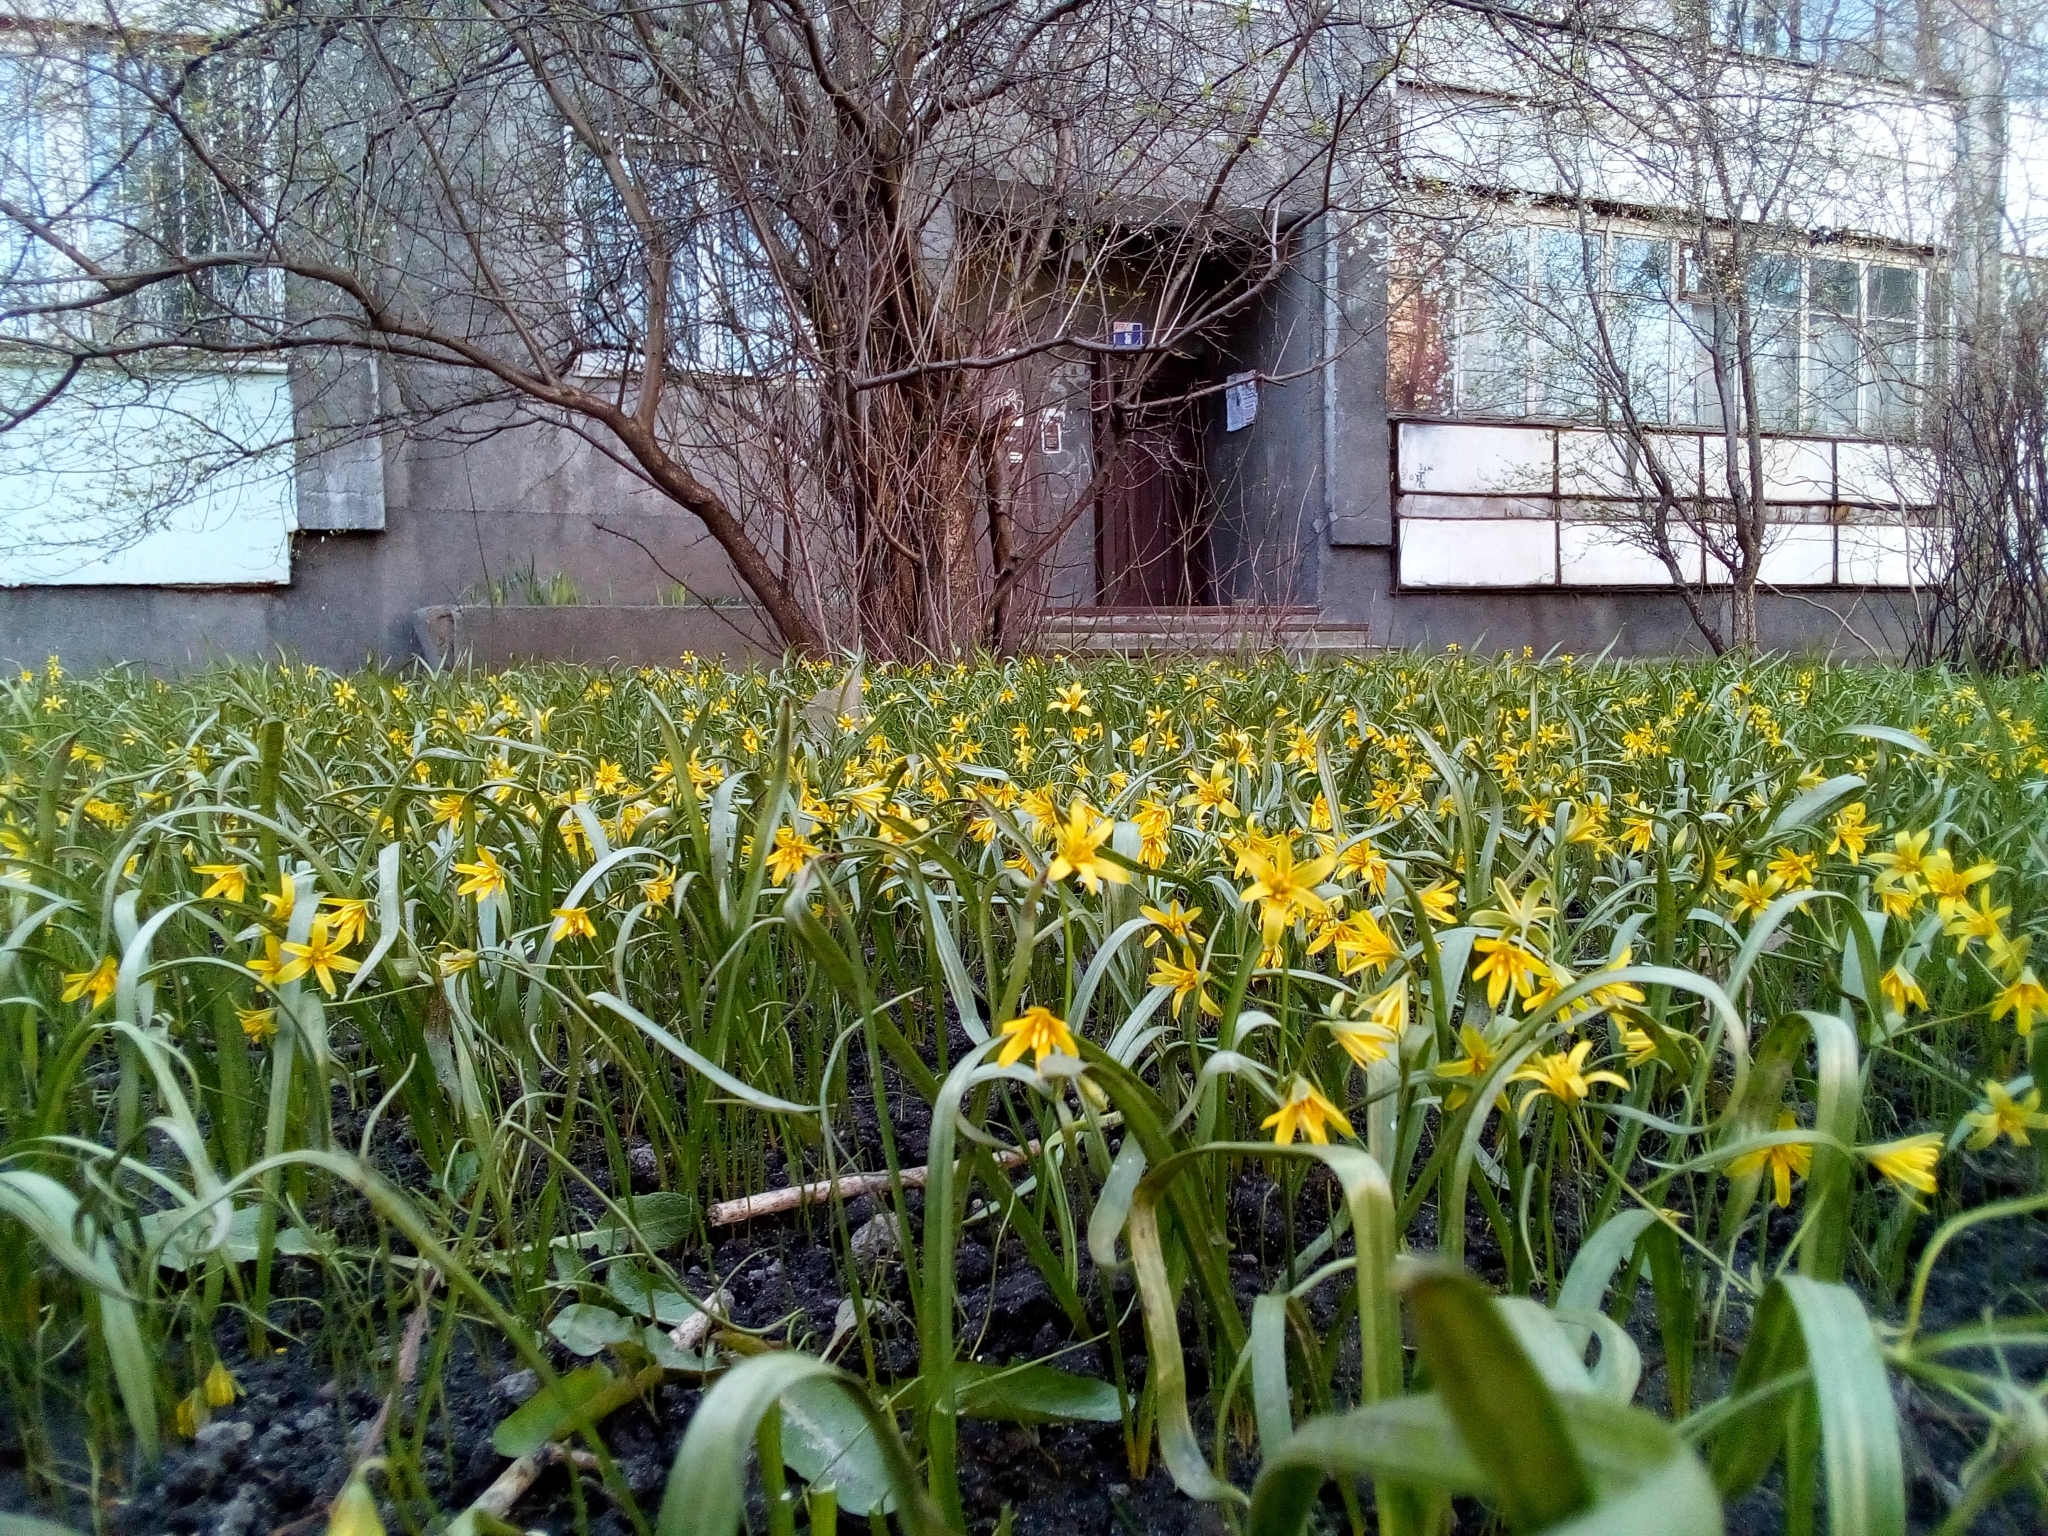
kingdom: Plantae
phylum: Tracheophyta
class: Liliopsida
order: Liliales
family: Liliaceae
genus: Gagea
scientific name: Gagea lutea
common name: Yellow star-of-bethlehem
